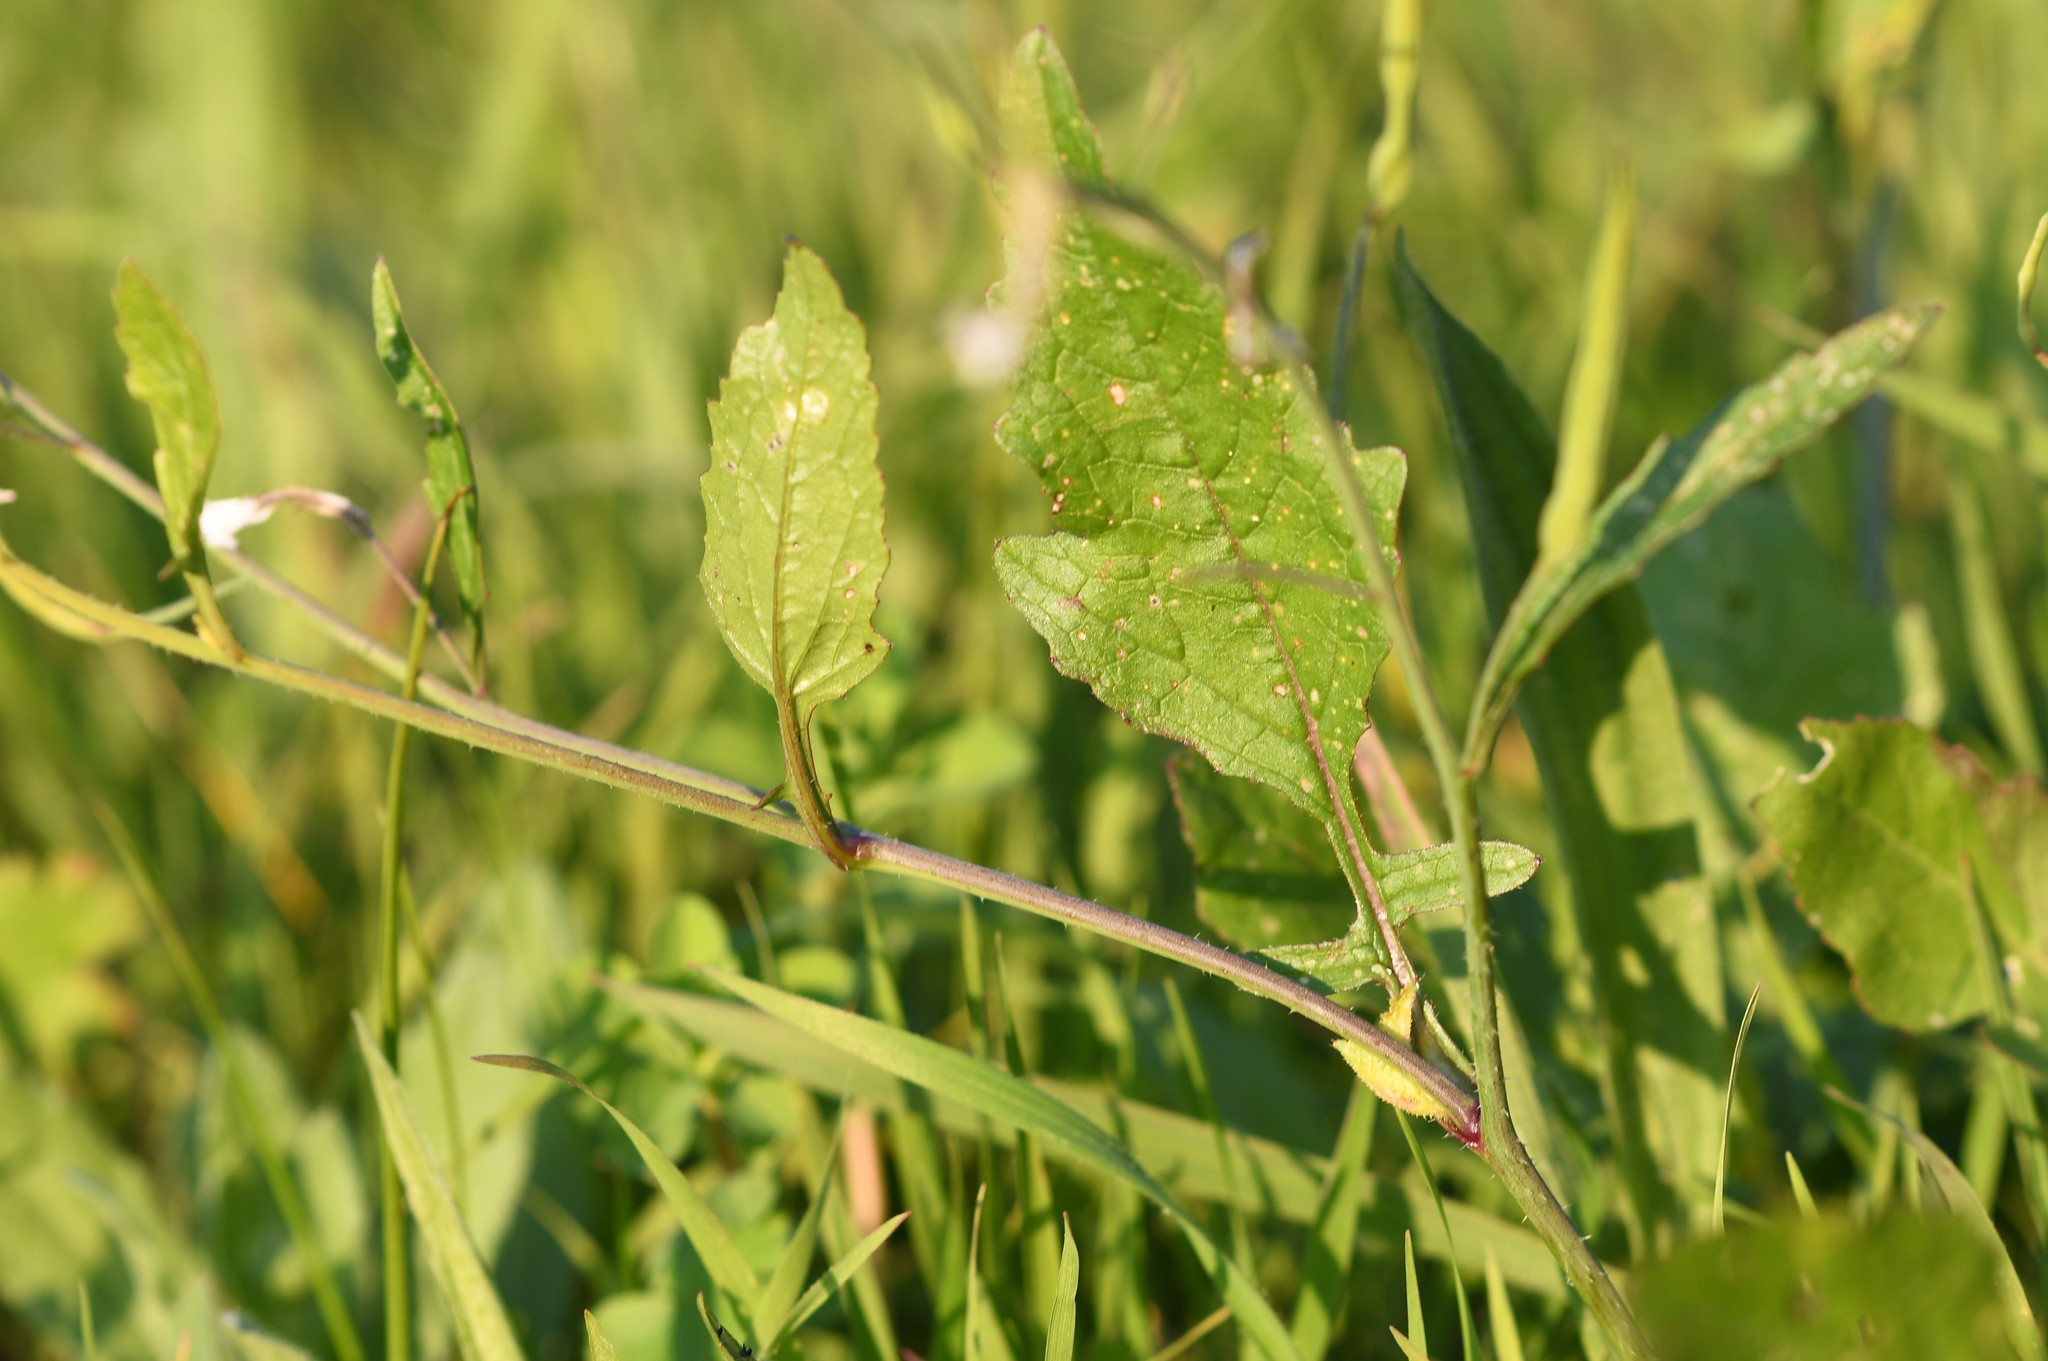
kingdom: Plantae
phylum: Tracheophyta
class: Magnoliopsida
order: Brassicales
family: Brassicaceae
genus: Raphanus
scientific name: Raphanus raphanistrum
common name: Wild radish
